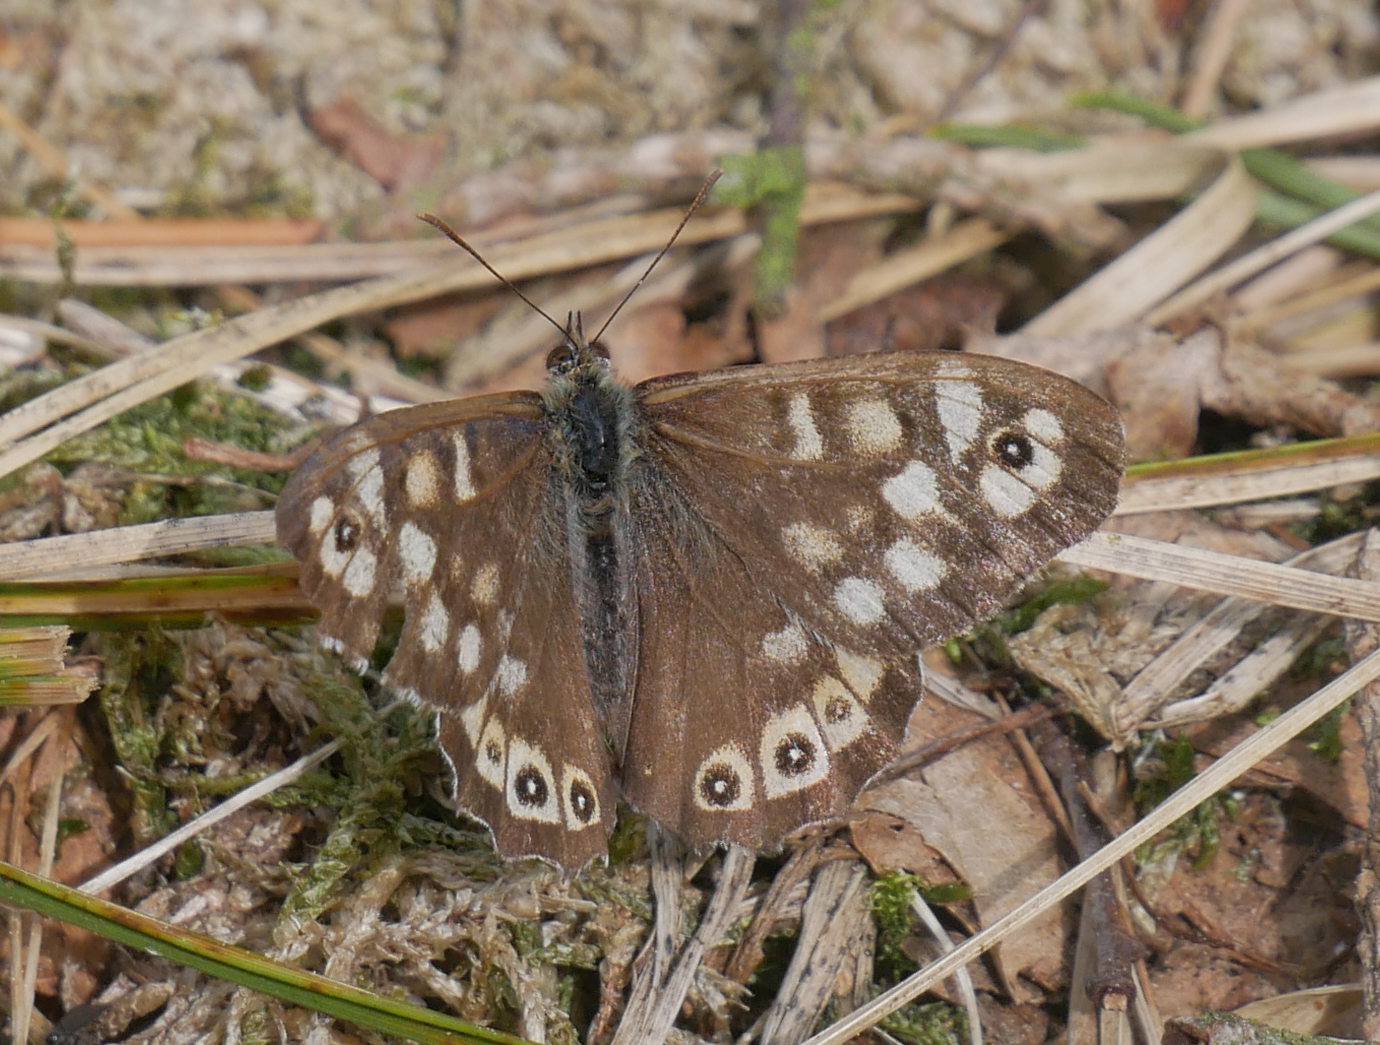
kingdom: Animalia
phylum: Arthropoda
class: Insecta
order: Lepidoptera
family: Nymphalidae
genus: Pararge
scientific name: Pararge aegeria
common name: Speckled wood
